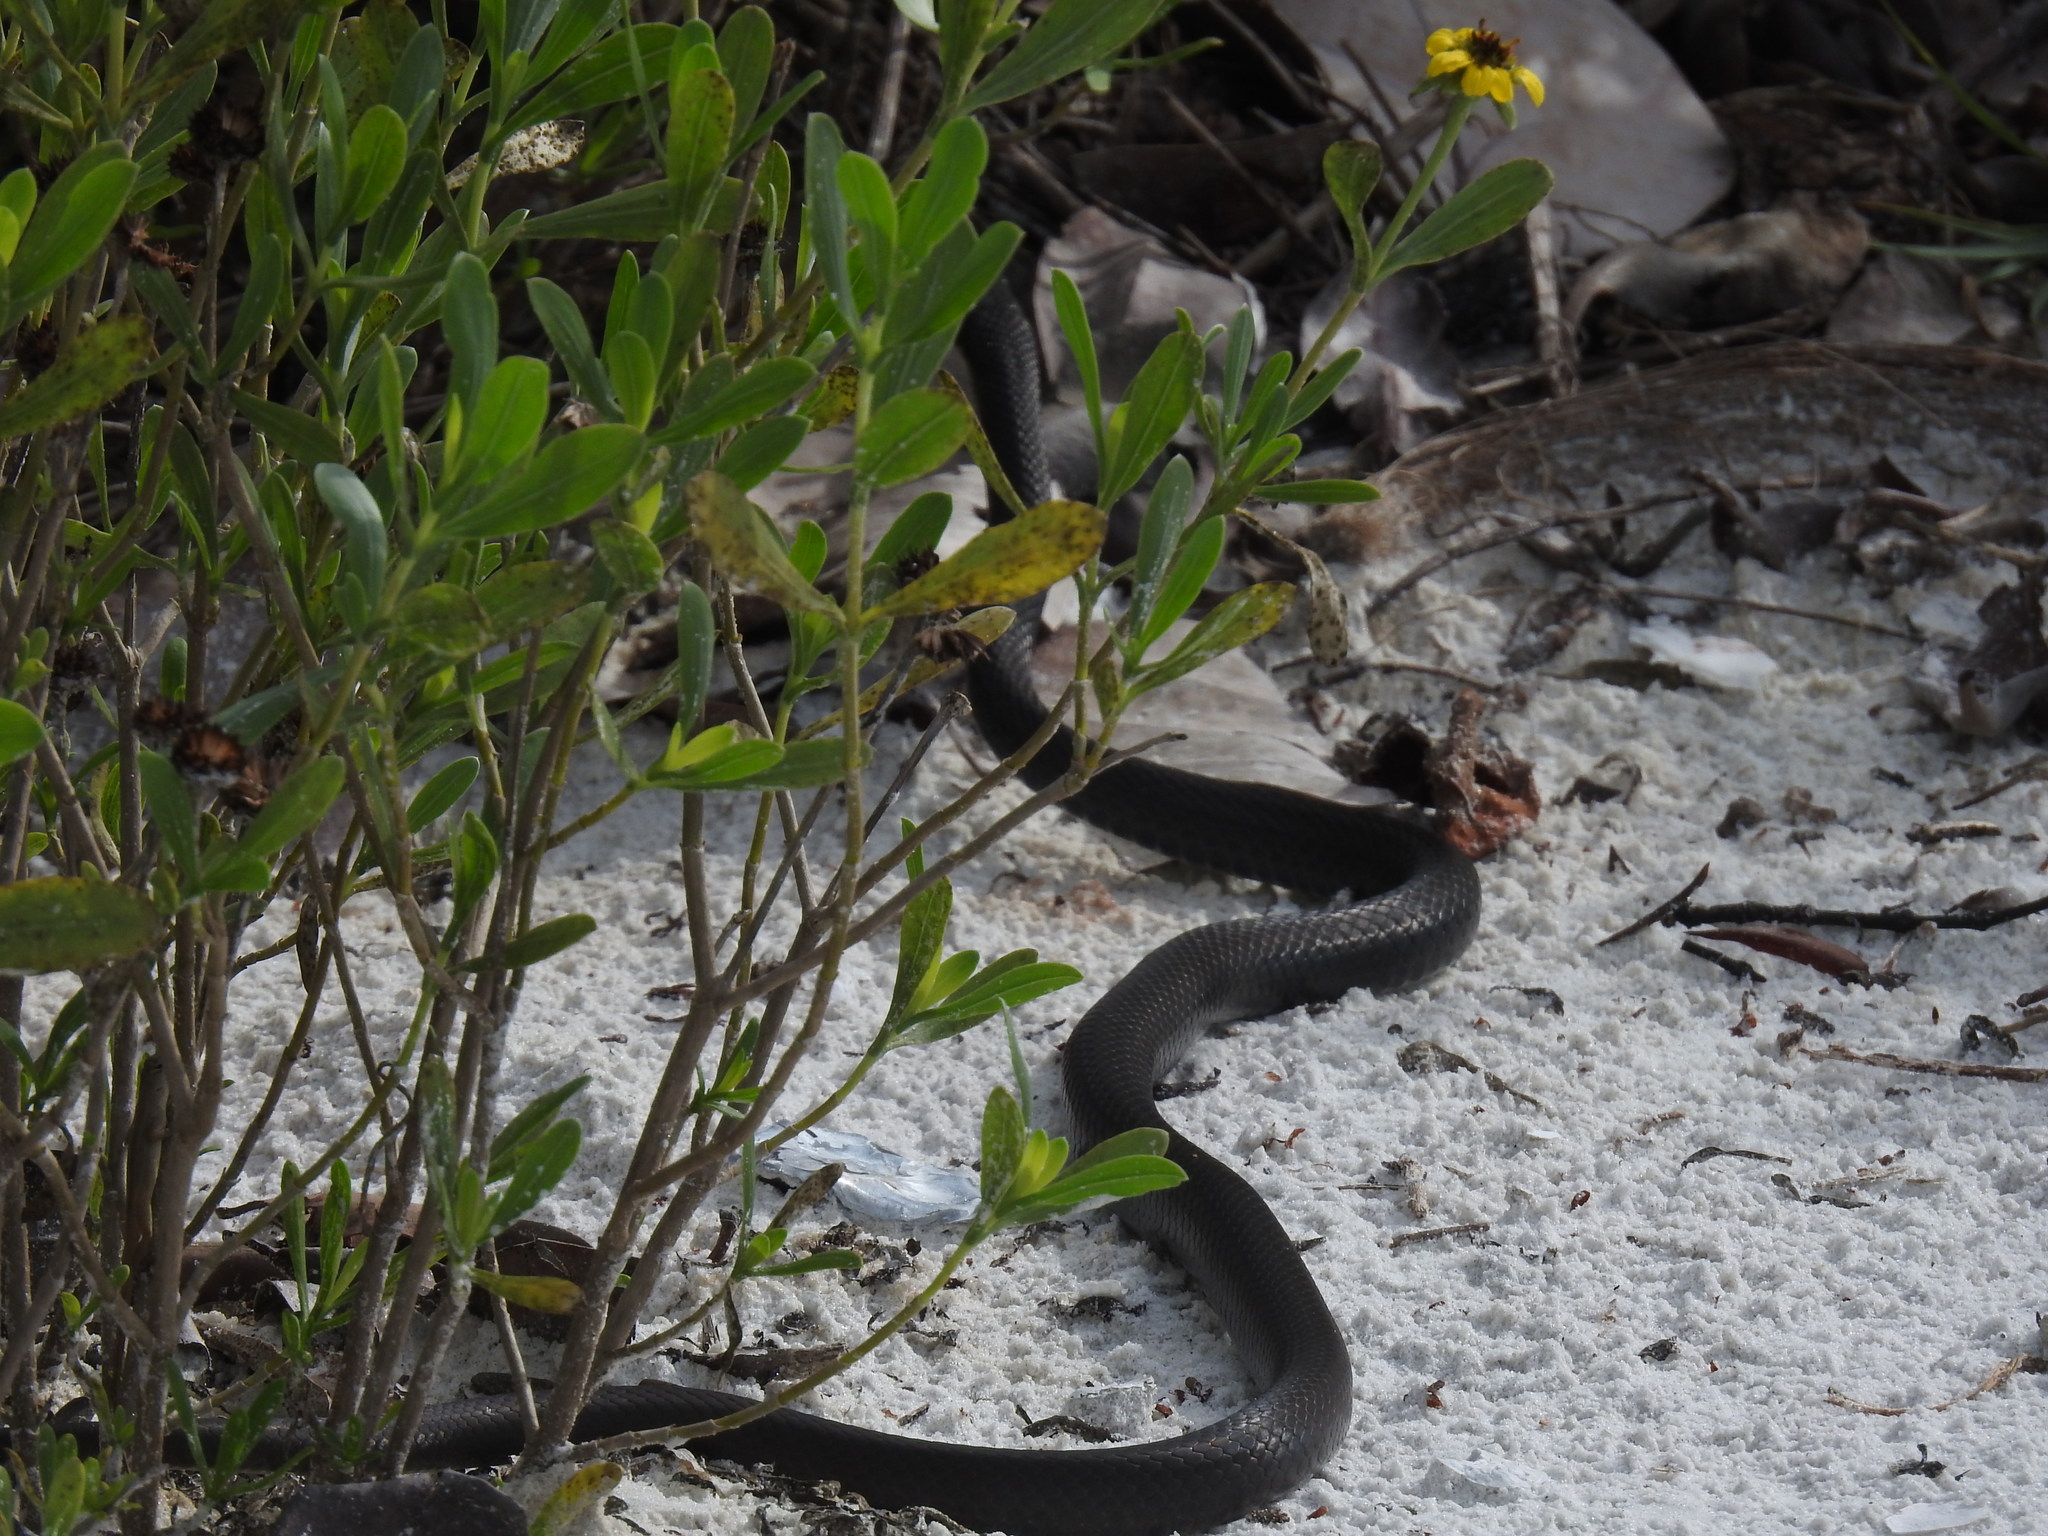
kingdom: Animalia
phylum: Chordata
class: Squamata
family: Colubridae
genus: Coluber
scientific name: Coluber constrictor
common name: Eastern racer
